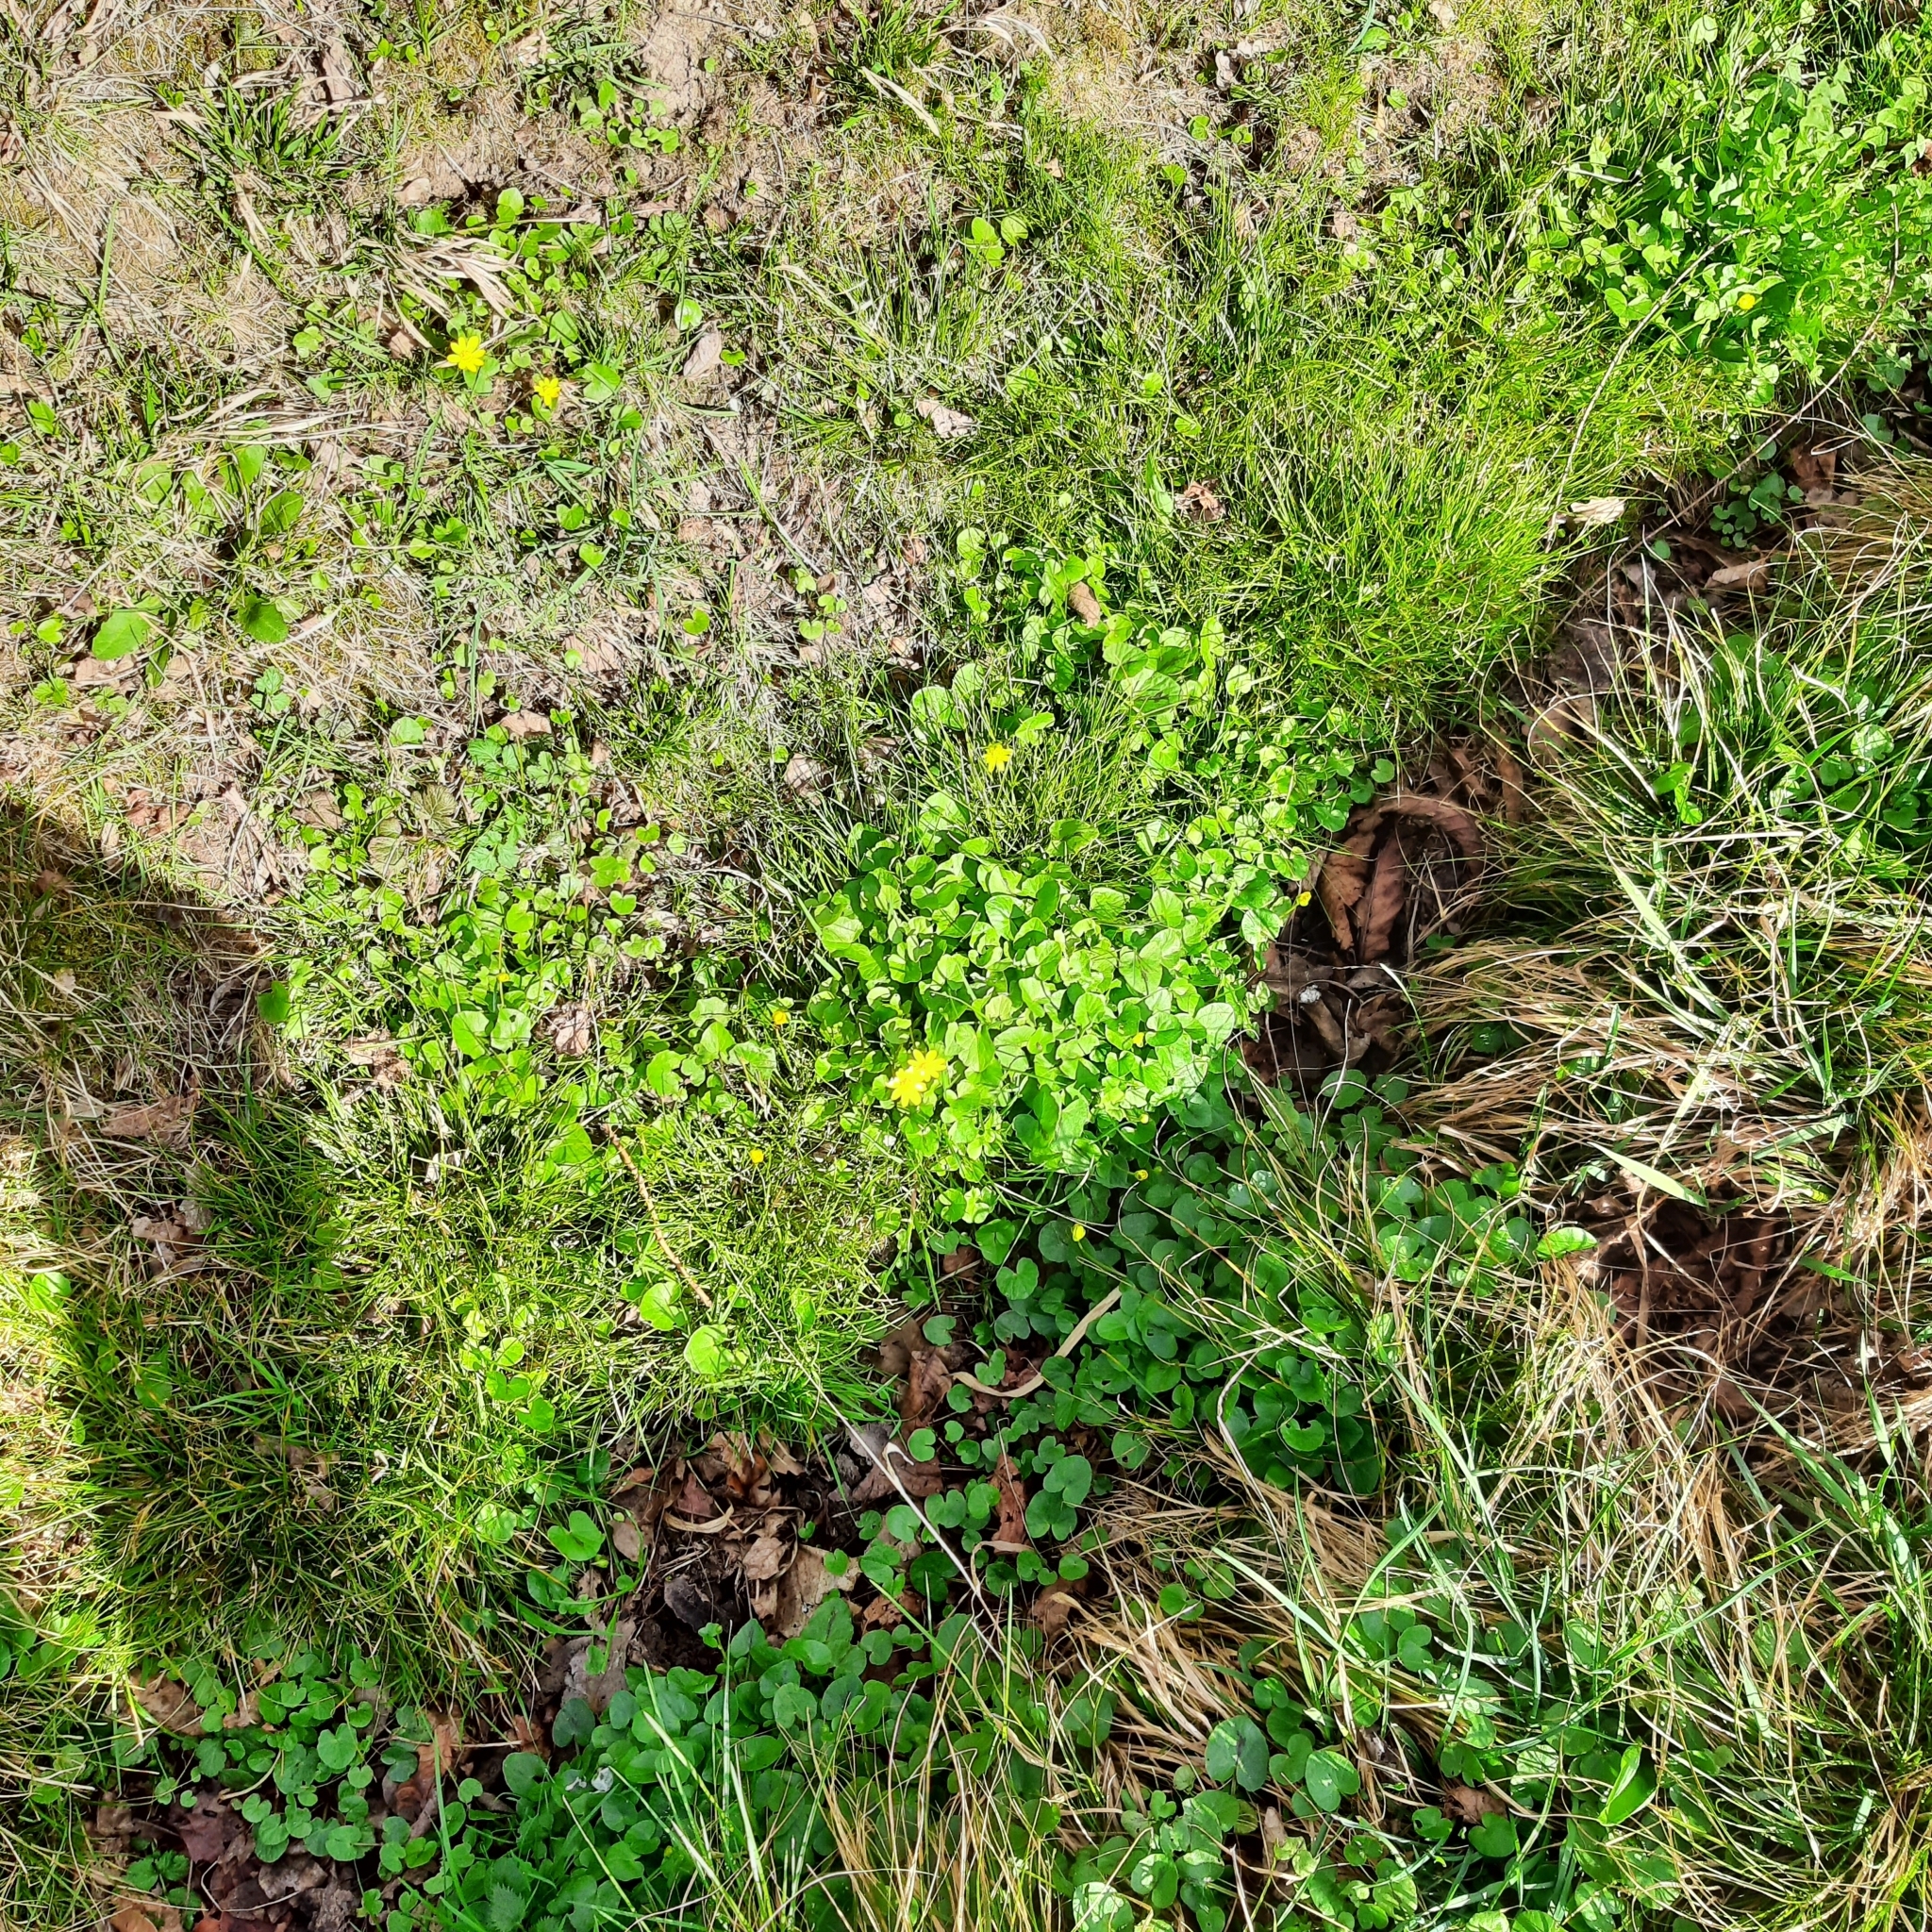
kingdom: Plantae
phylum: Tracheophyta
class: Magnoliopsida
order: Ranunculales
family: Ranunculaceae
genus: Ficaria
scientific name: Ficaria verna
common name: Lesser celandine
